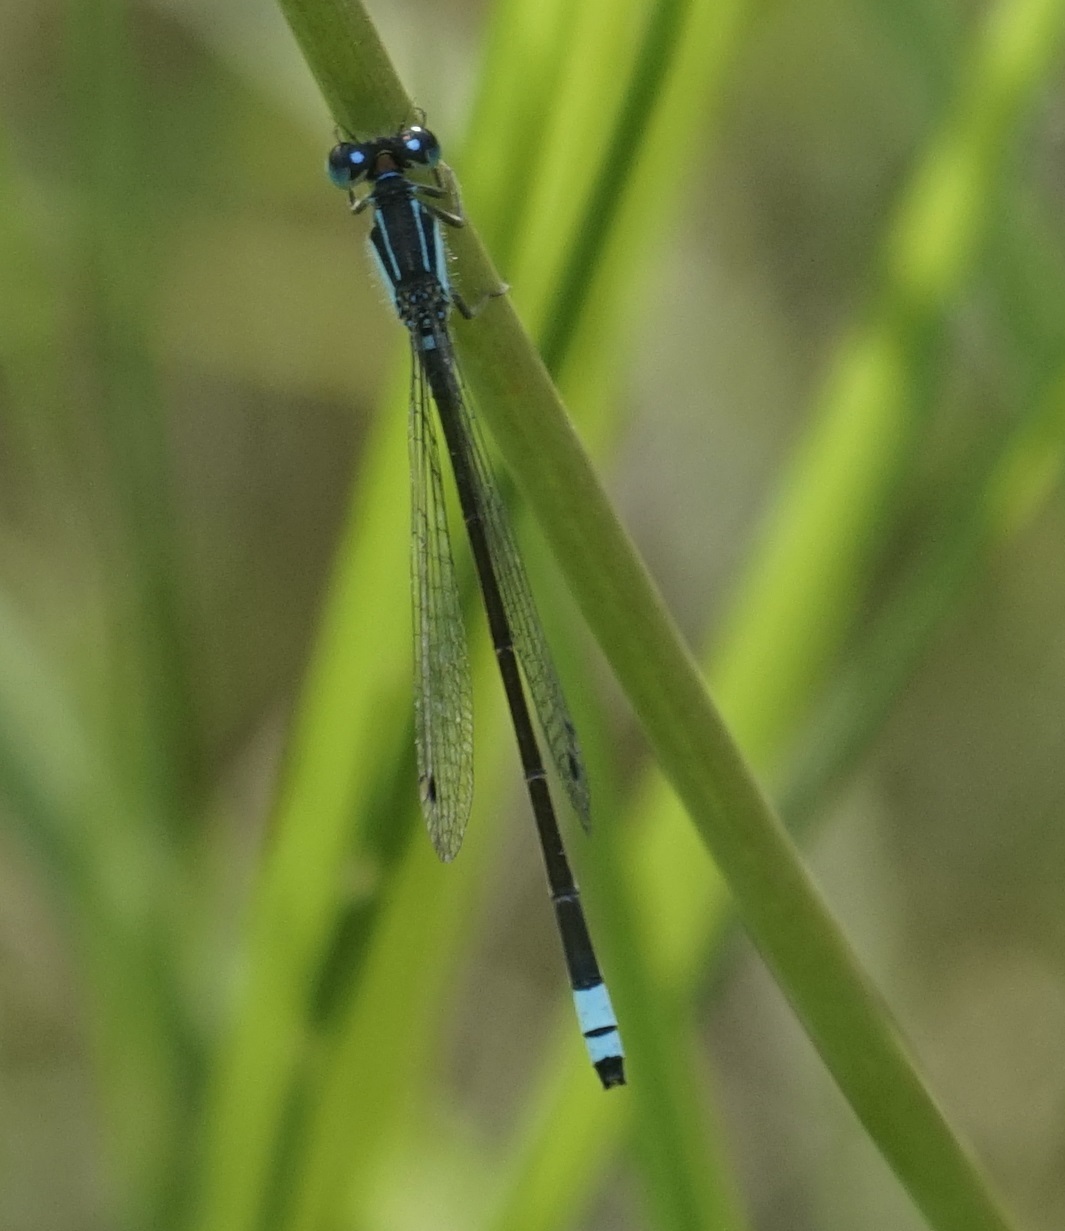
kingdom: Animalia
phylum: Arthropoda
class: Insecta
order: Odonata
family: Coenagrionidae
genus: Ischnura
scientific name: Ischnura heterosticta
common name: Common bluetail
